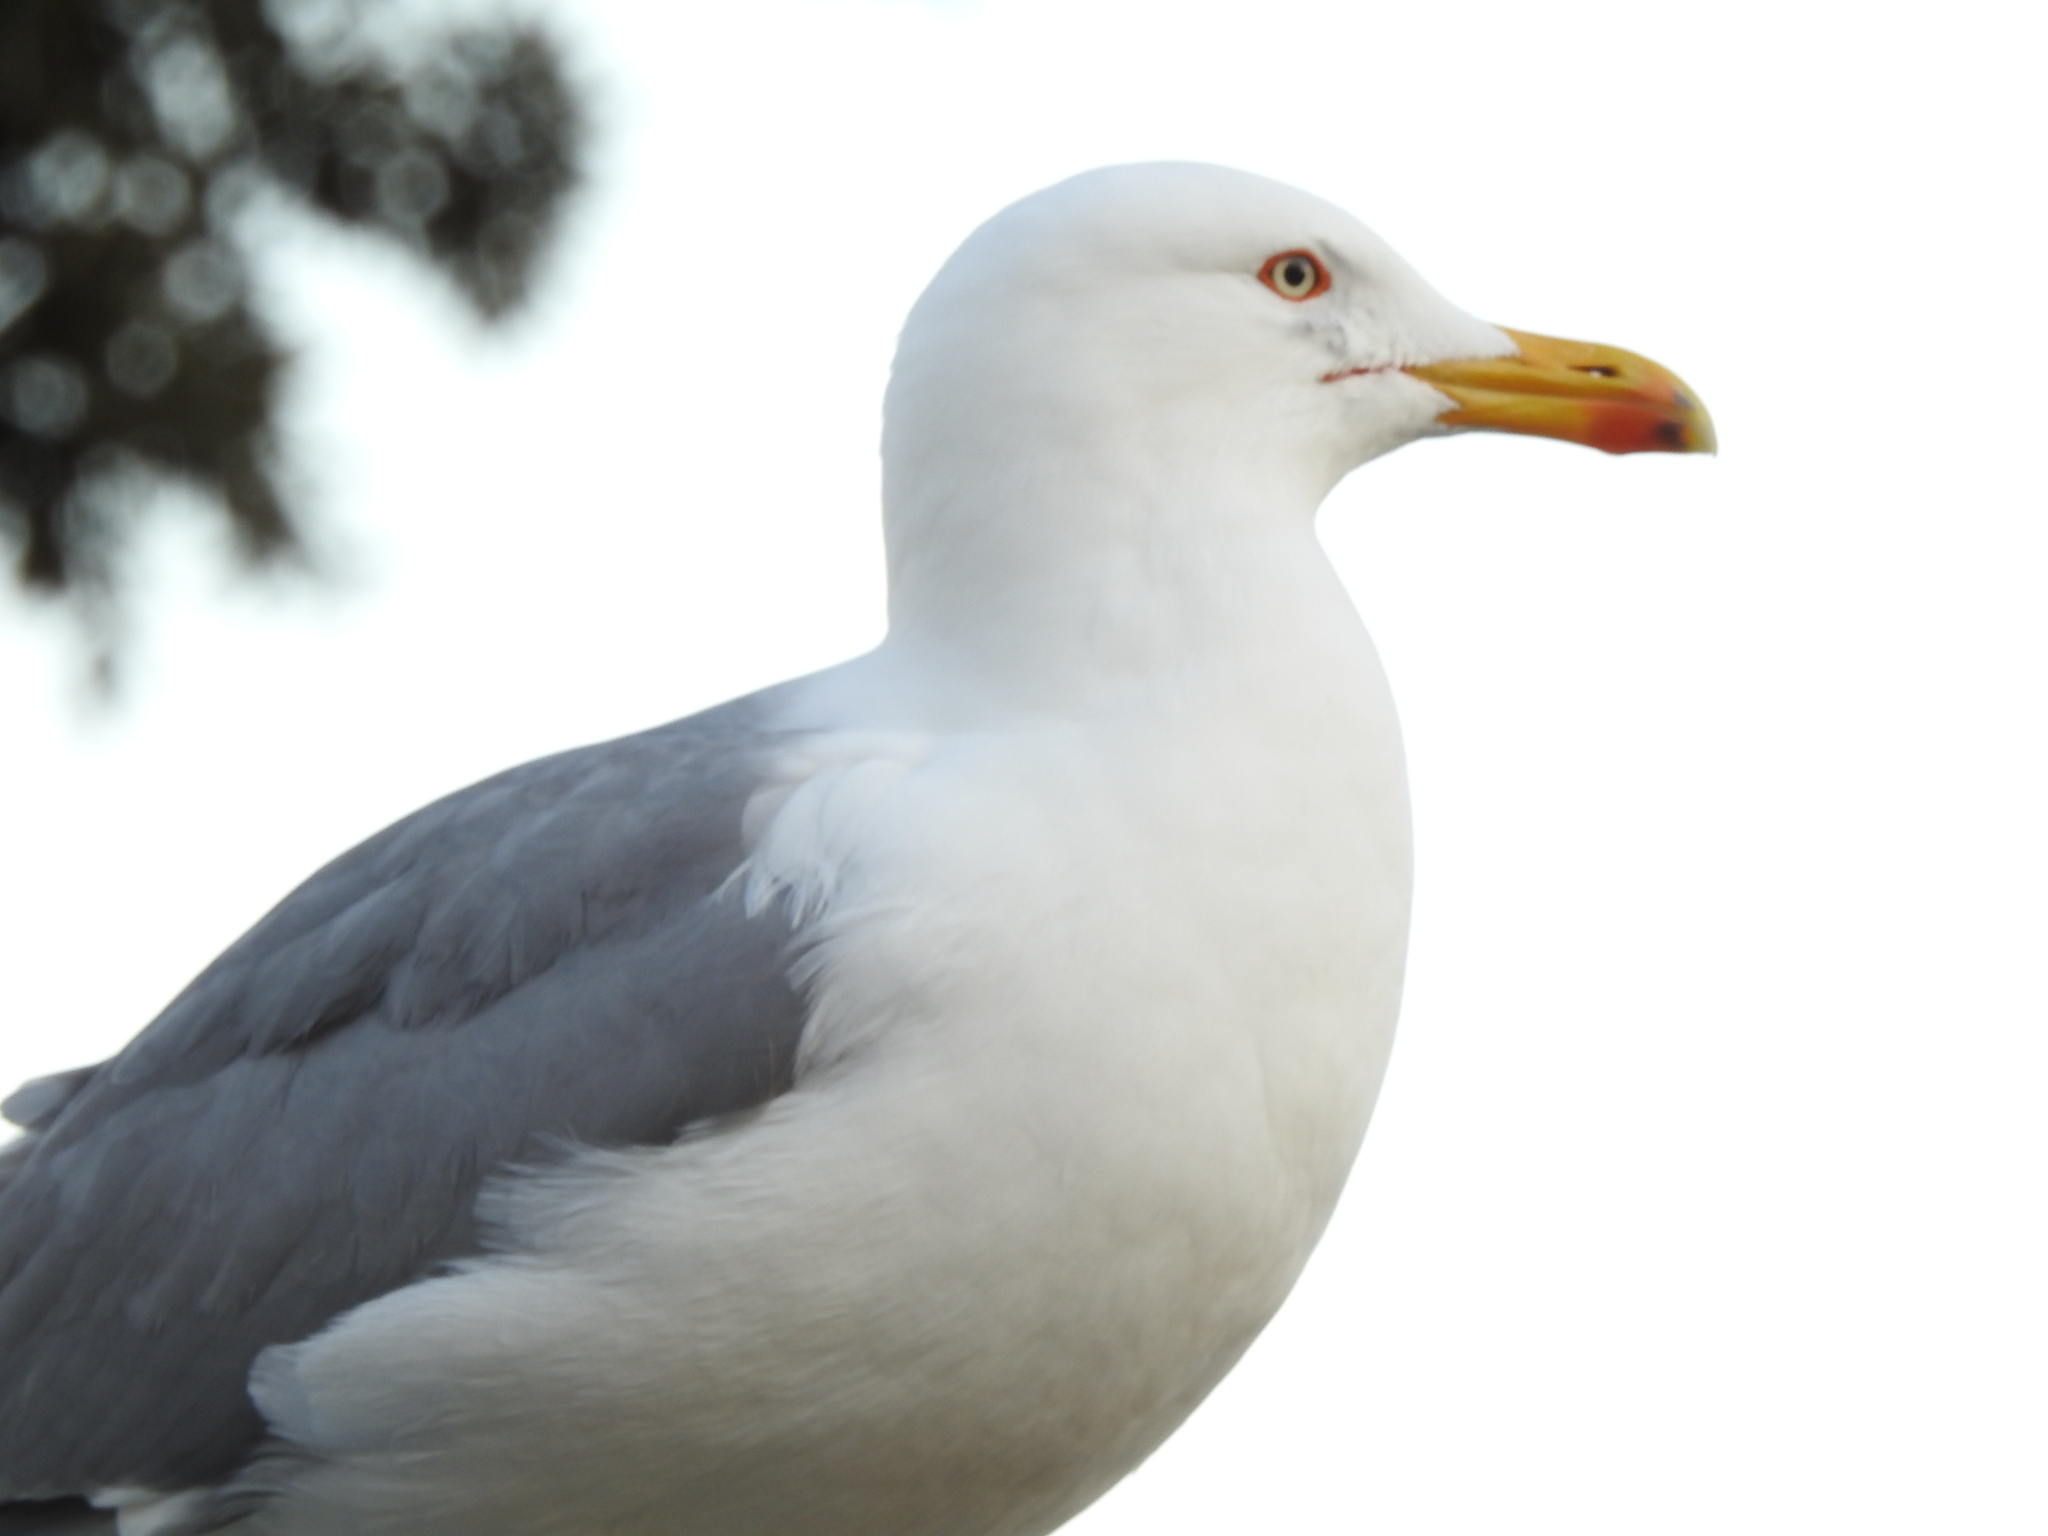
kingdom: Animalia
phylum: Chordata
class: Aves
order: Charadriiformes
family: Laridae
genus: Larus
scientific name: Larus michahellis
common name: Yellow-legged gull
